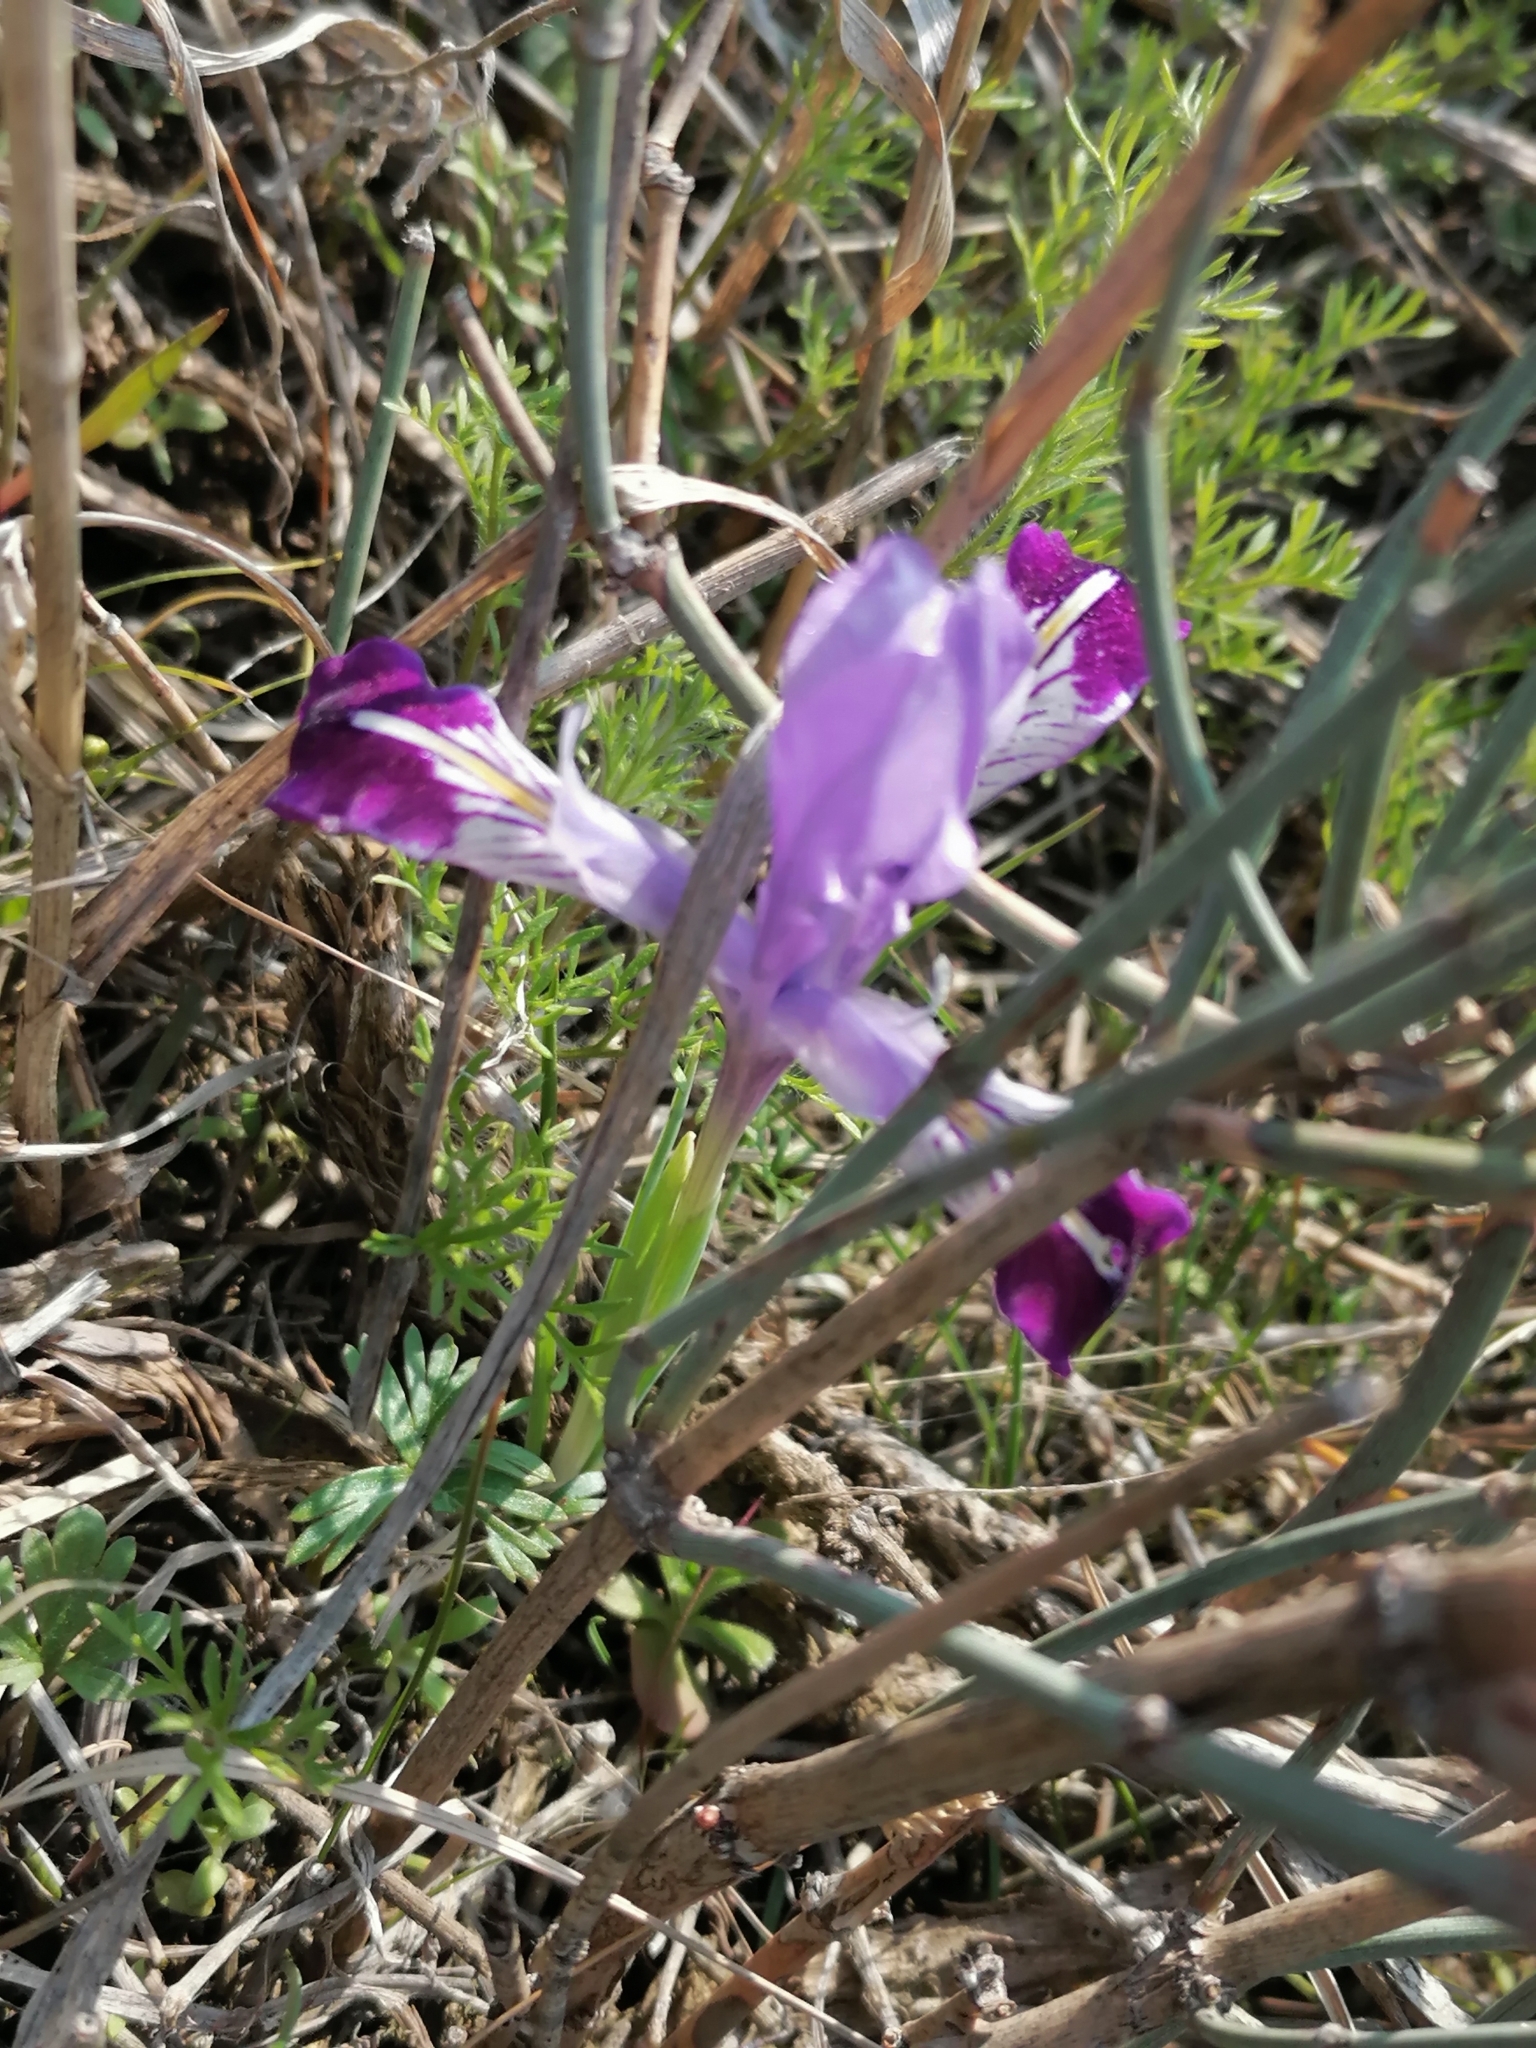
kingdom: Plantae
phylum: Tracheophyta
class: Liliopsida
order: Asparagales
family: Iridaceae
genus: Iris
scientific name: Iris kolpakowskiana
